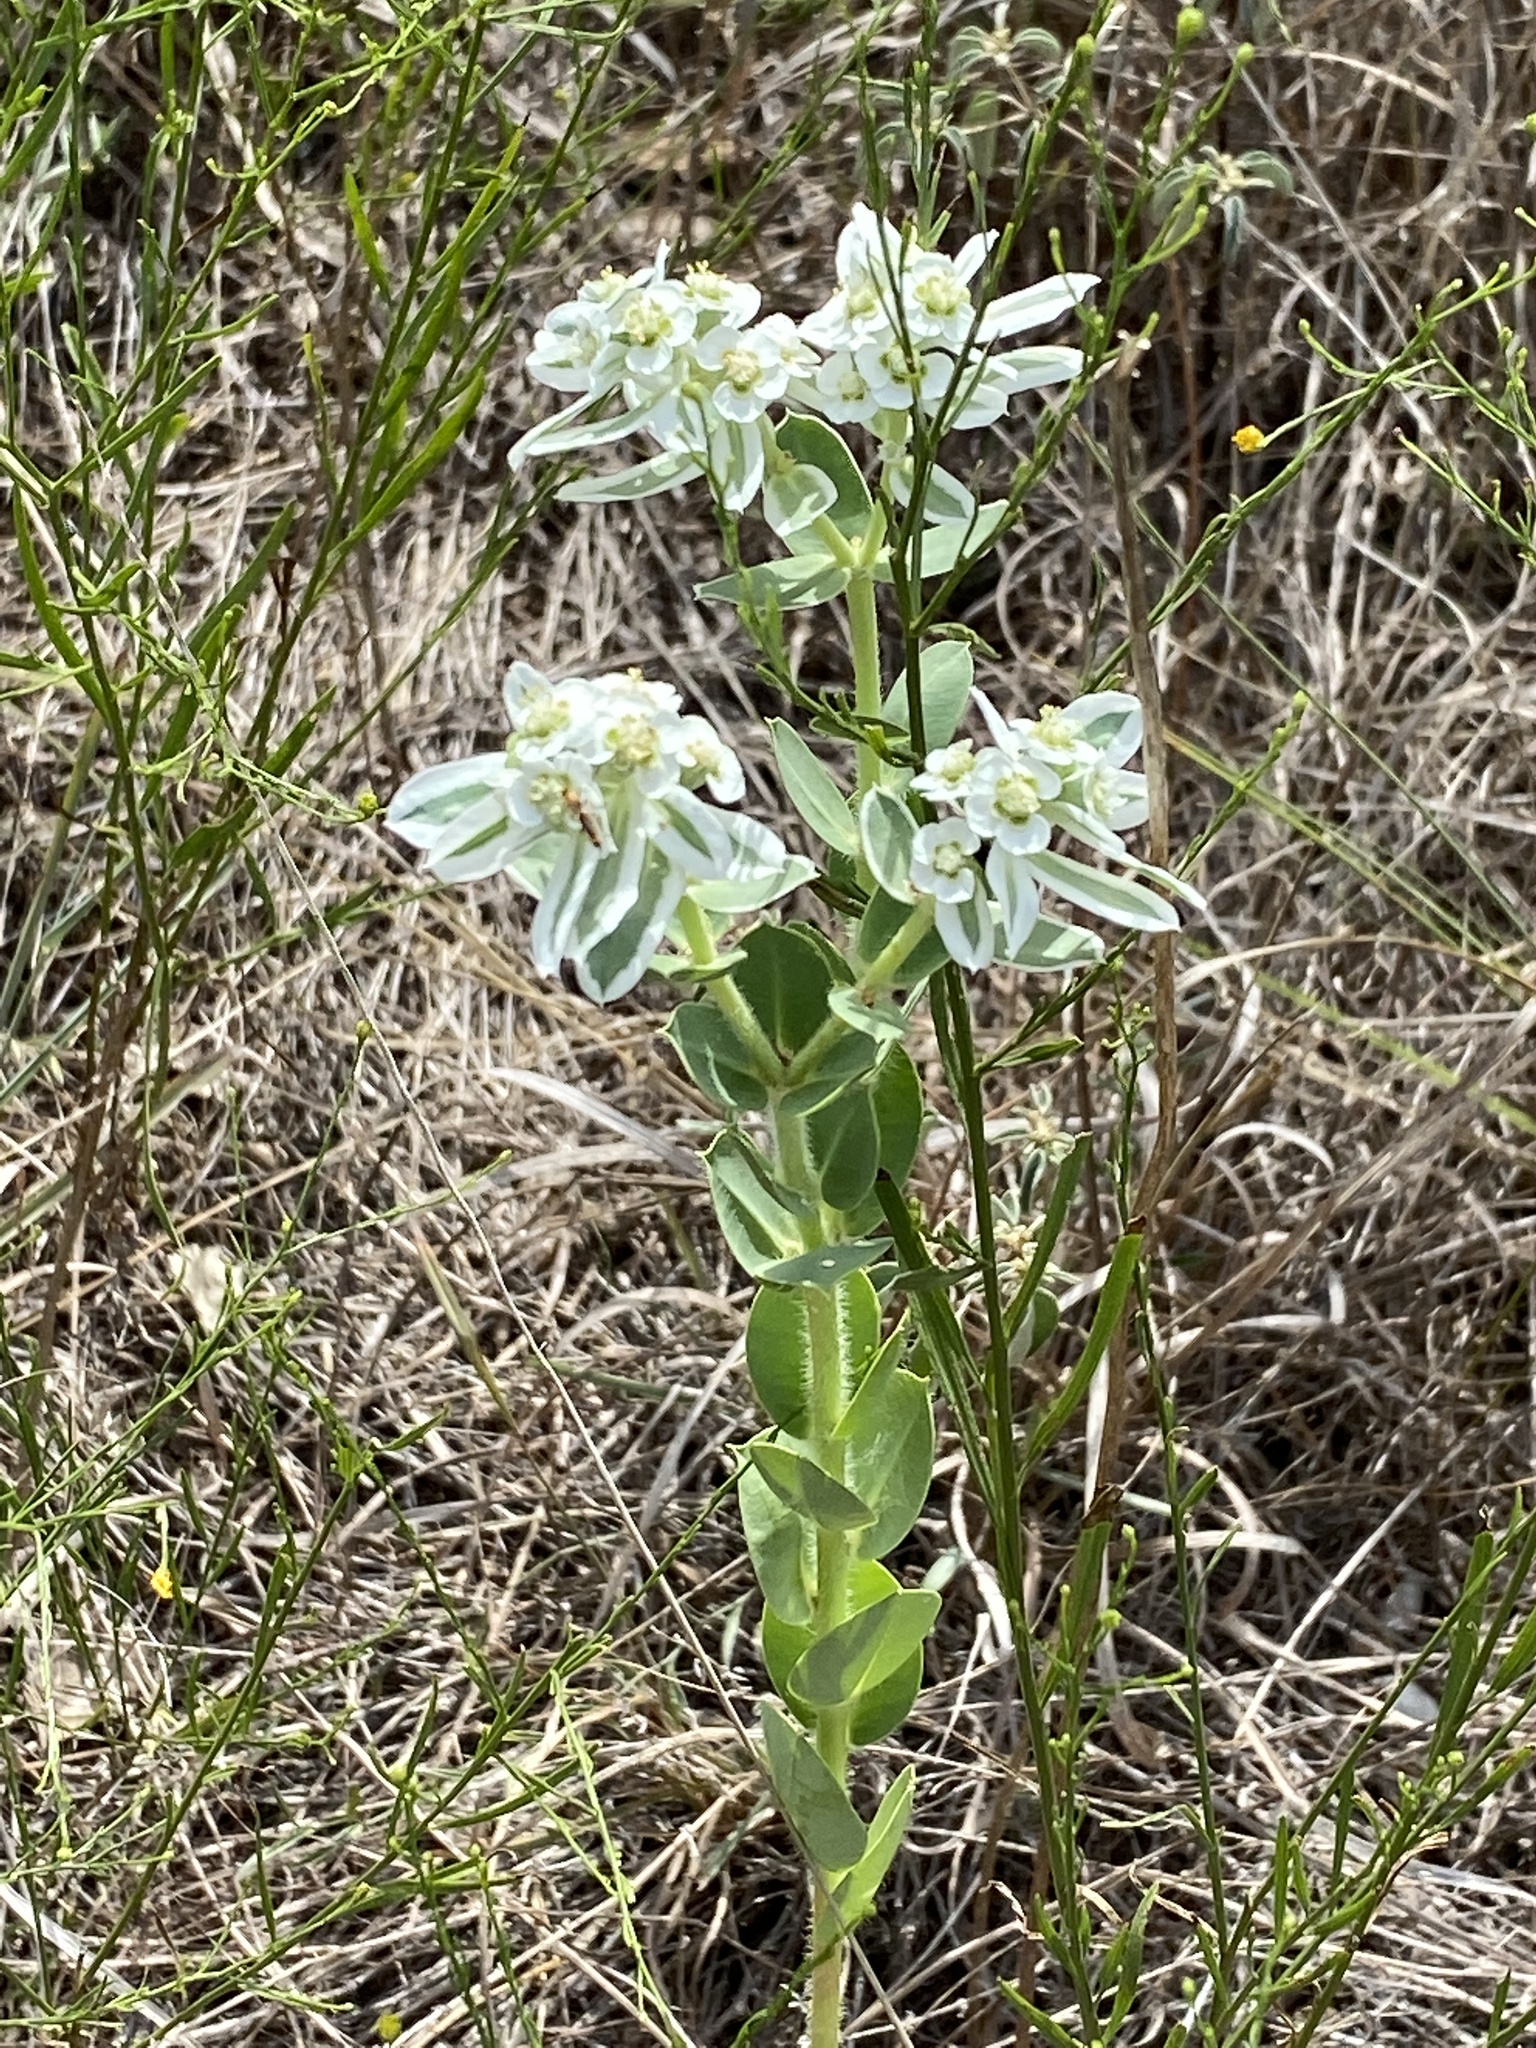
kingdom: Plantae
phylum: Tracheophyta
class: Magnoliopsida
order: Malpighiales
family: Euphorbiaceae
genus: Euphorbia
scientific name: Euphorbia marginata
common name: Ghostweed
